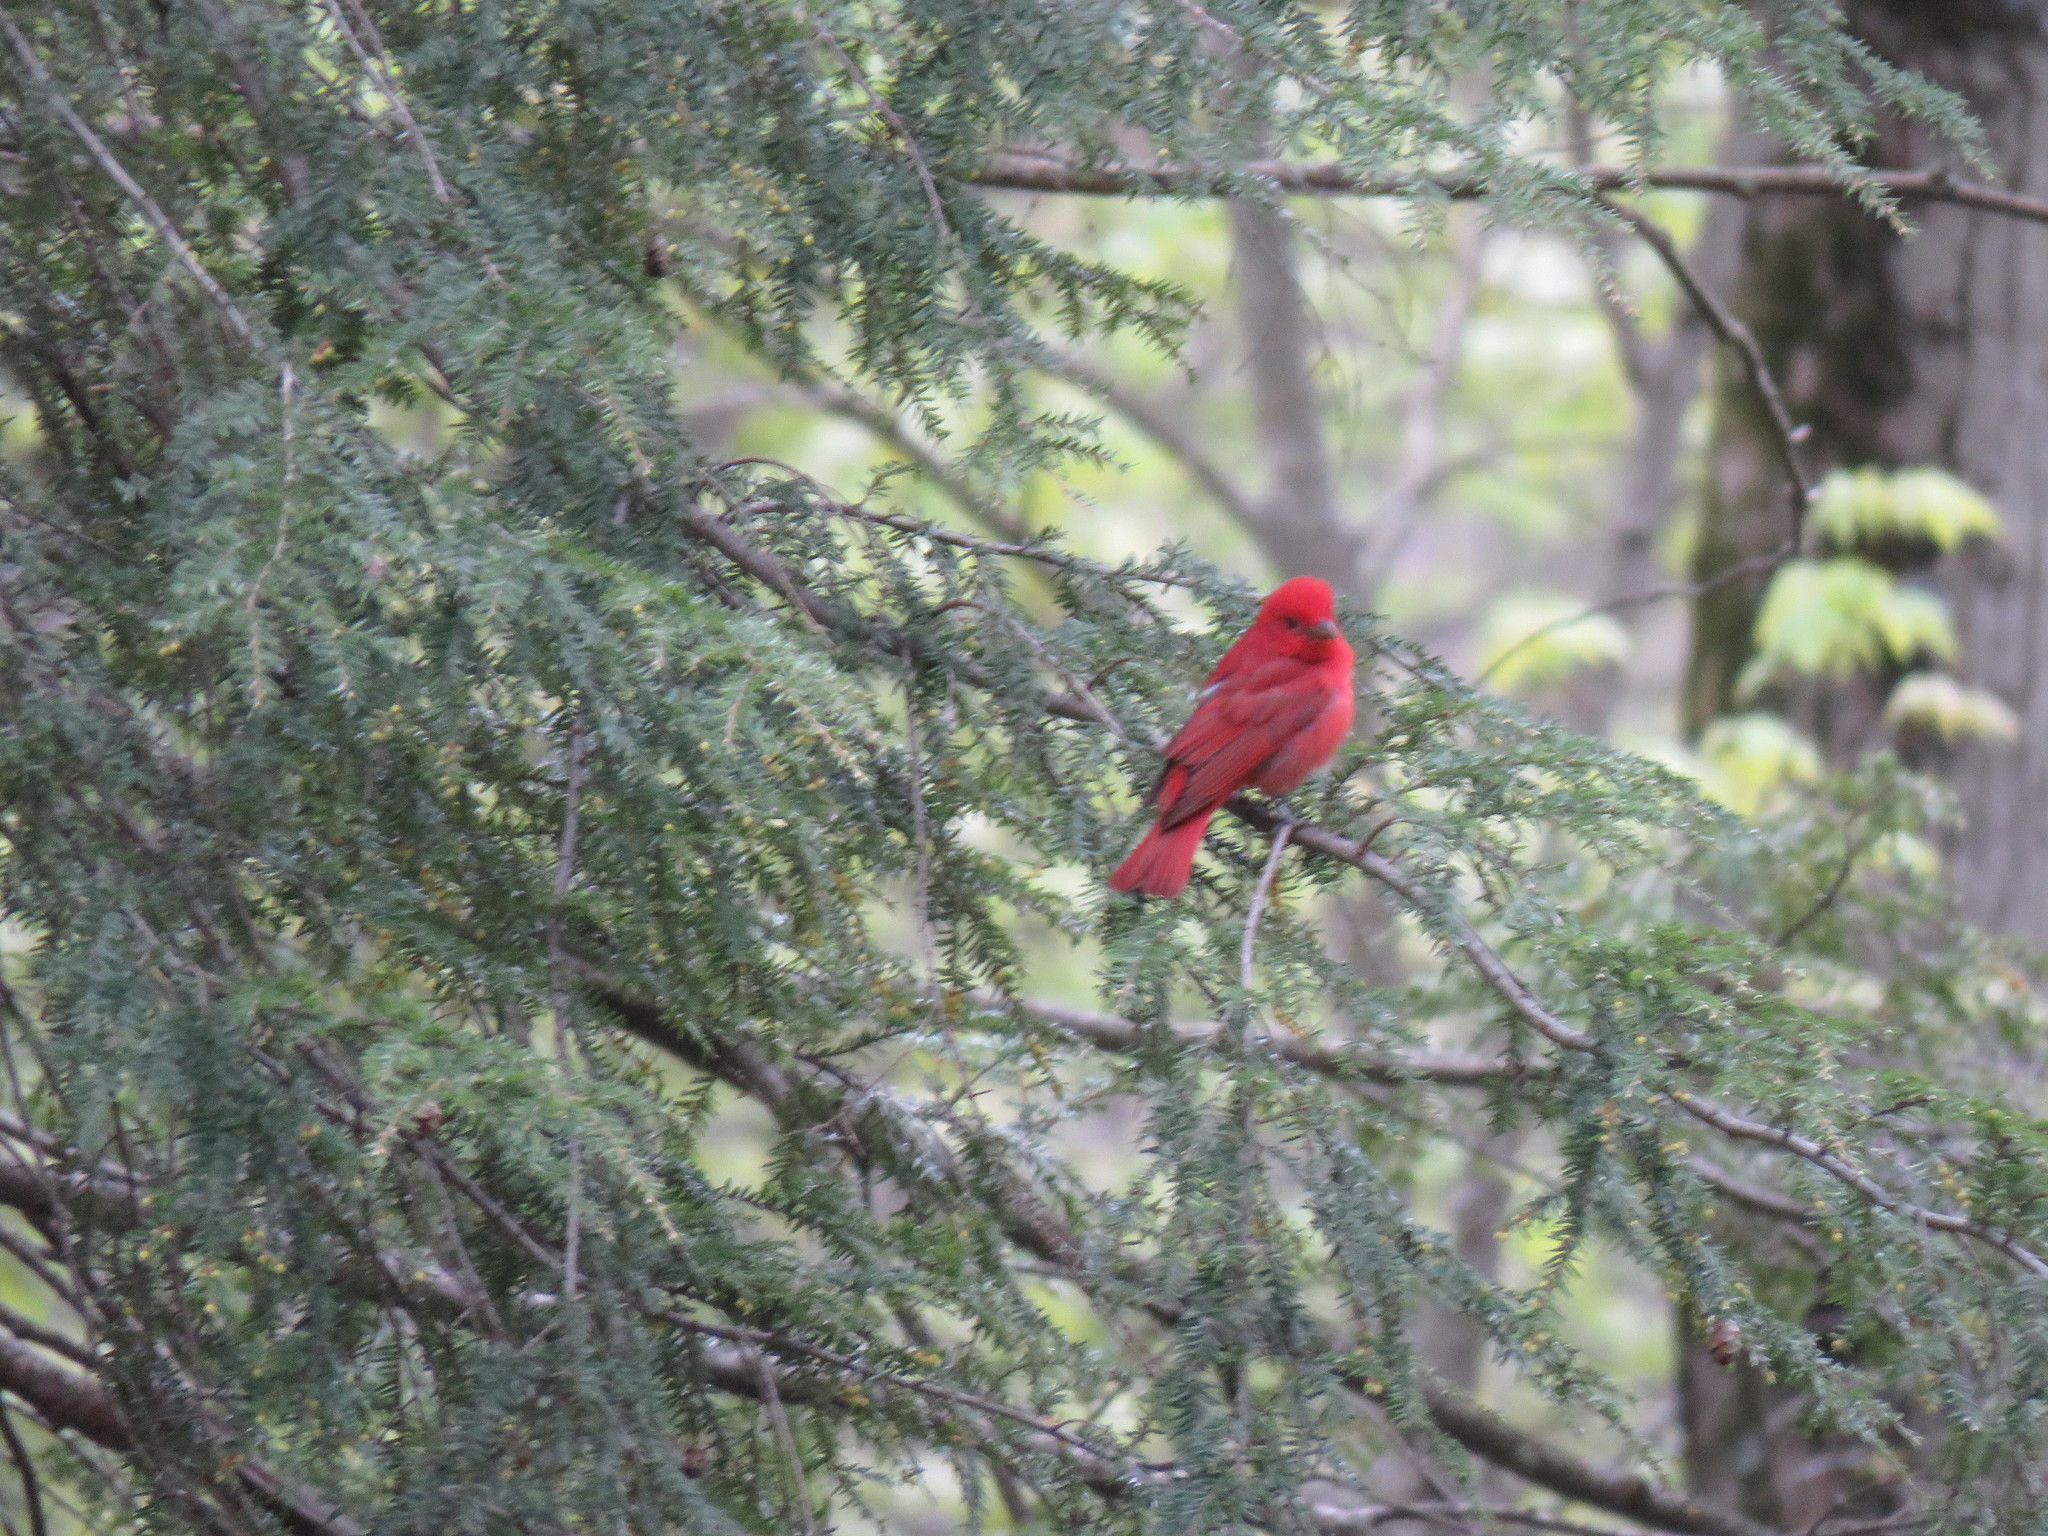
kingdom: Animalia
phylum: Chordata
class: Aves
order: Passeriformes
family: Cardinalidae
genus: Piranga
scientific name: Piranga rubra
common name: Summer tanager
